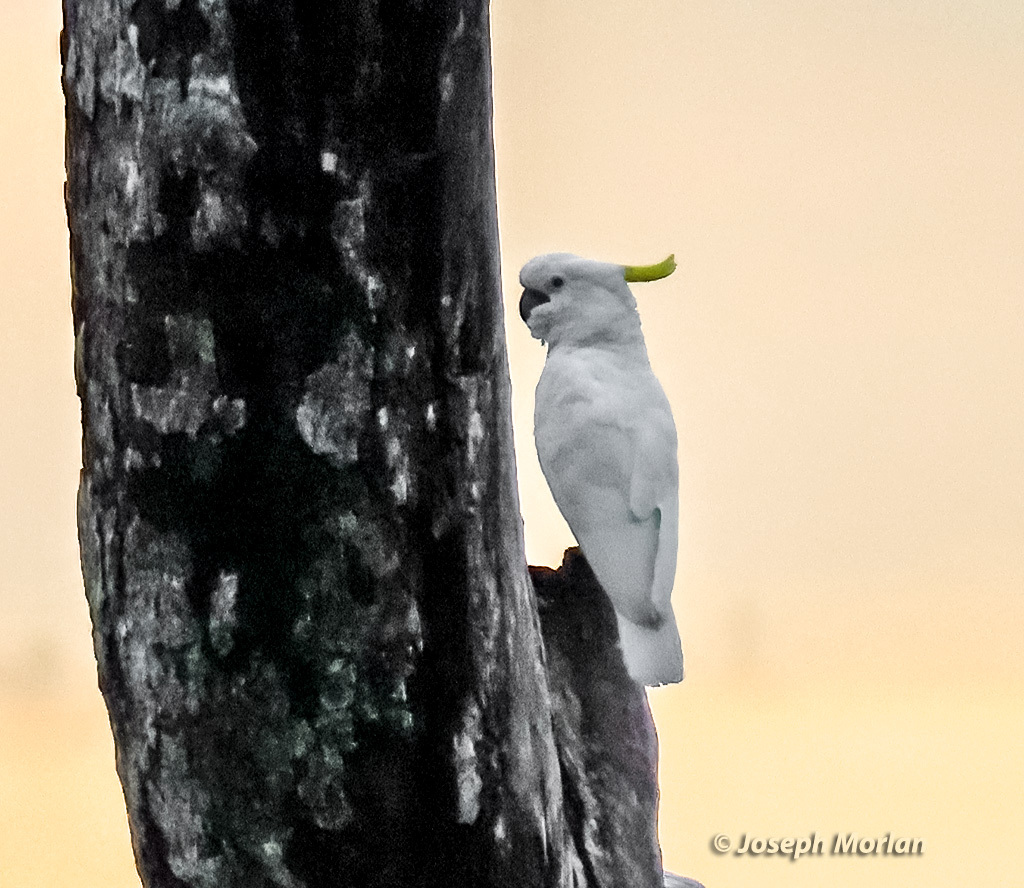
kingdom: Animalia
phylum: Chordata
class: Aves
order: Psittaciformes
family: Psittacidae
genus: Cacatua
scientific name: Cacatua galerita
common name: Sulphur-crested cockatoo
